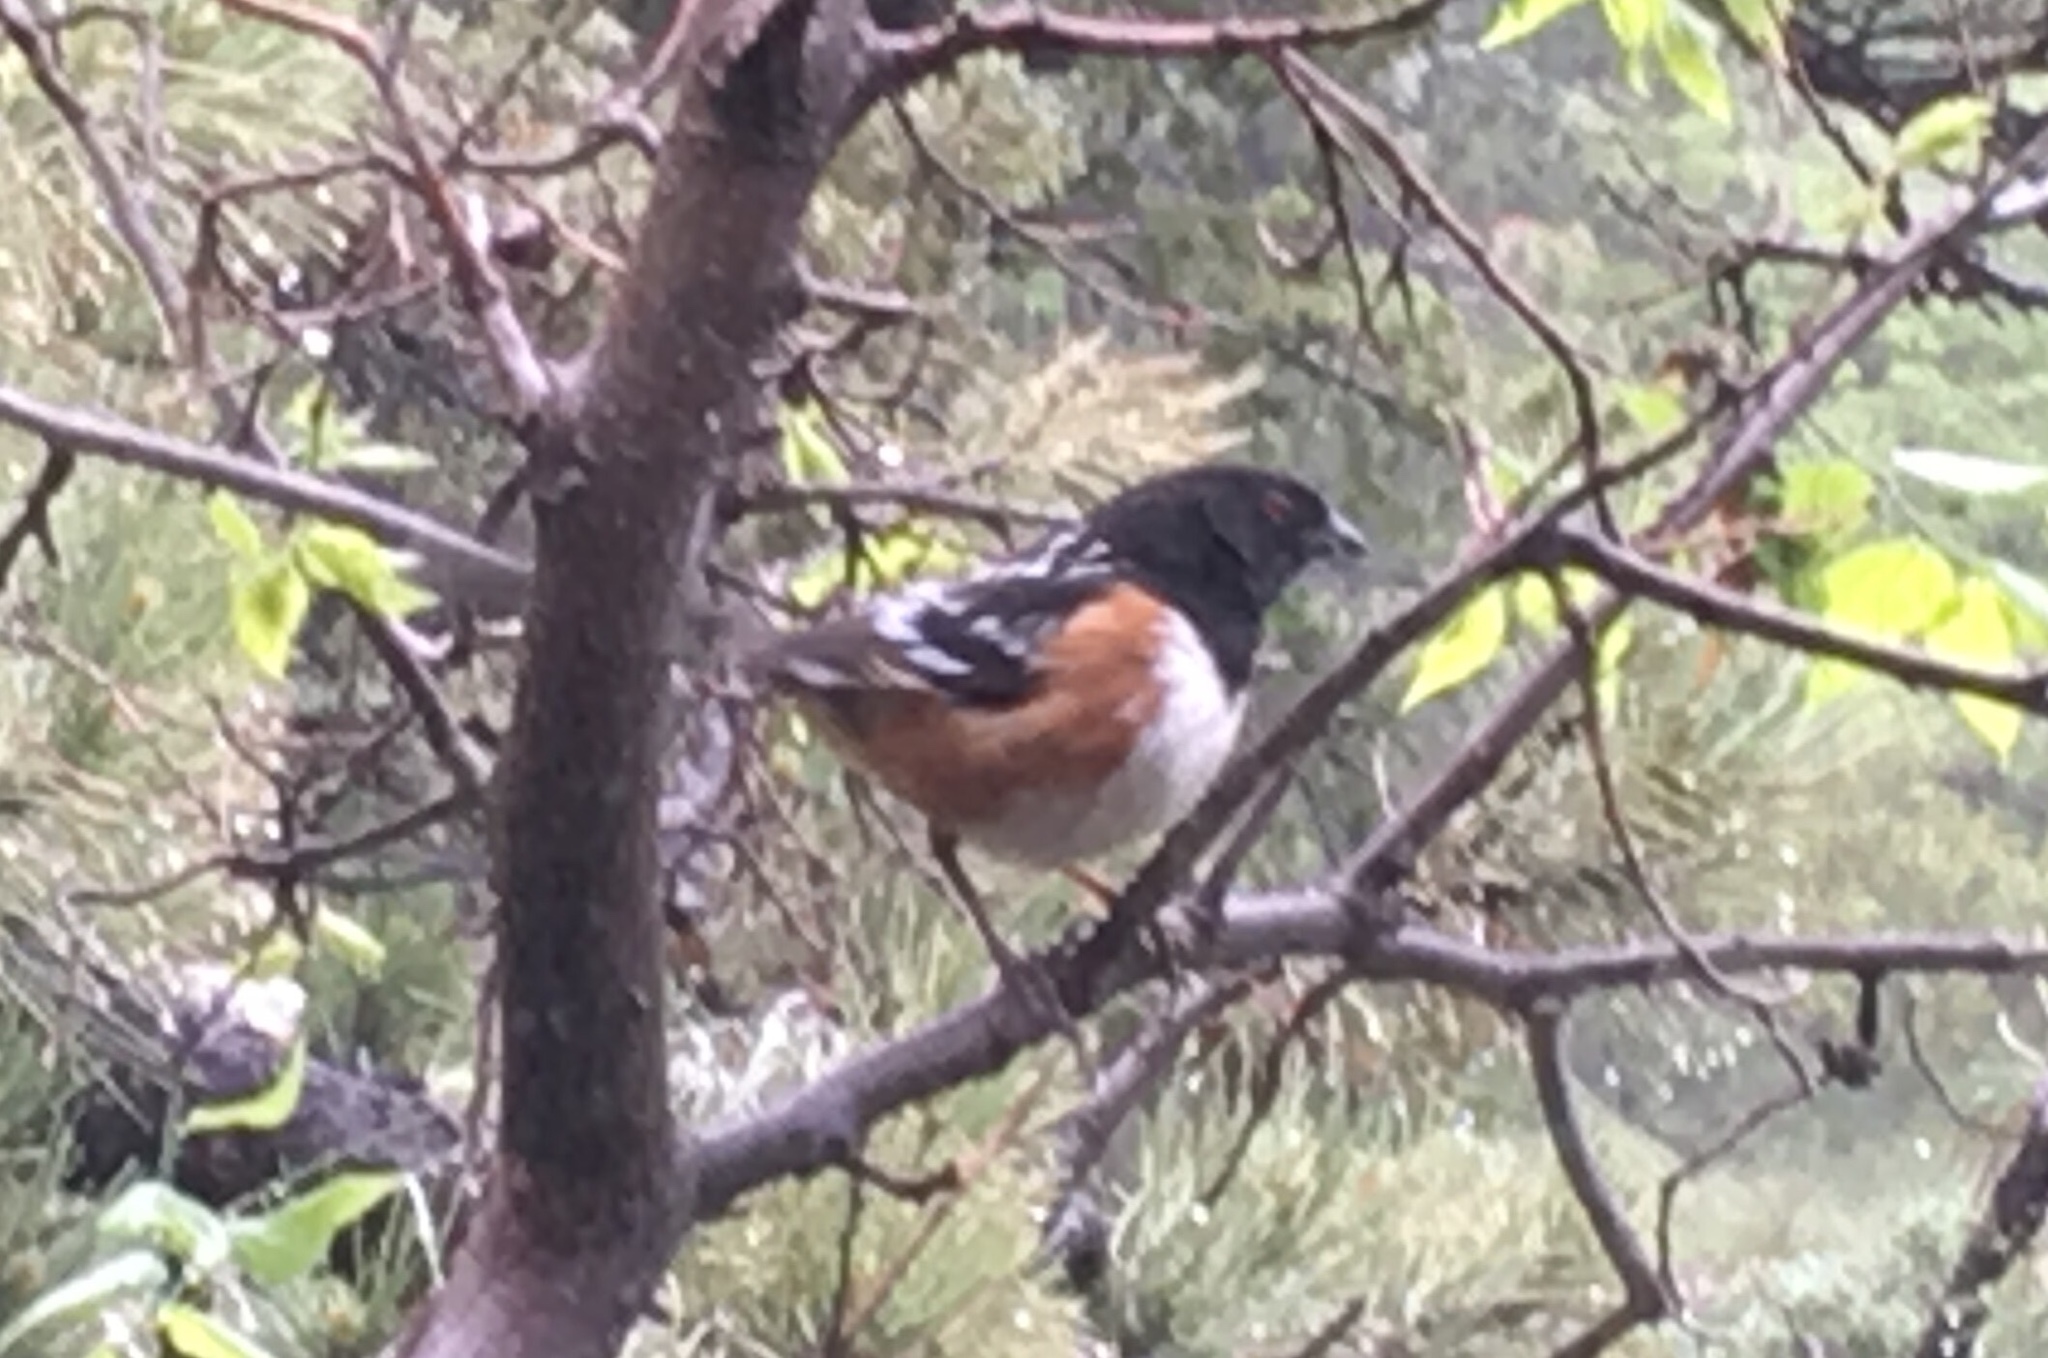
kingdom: Animalia
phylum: Chordata
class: Aves
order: Passeriformes
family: Passerellidae
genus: Pipilo
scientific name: Pipilo maculatus
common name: Spotted towhee
